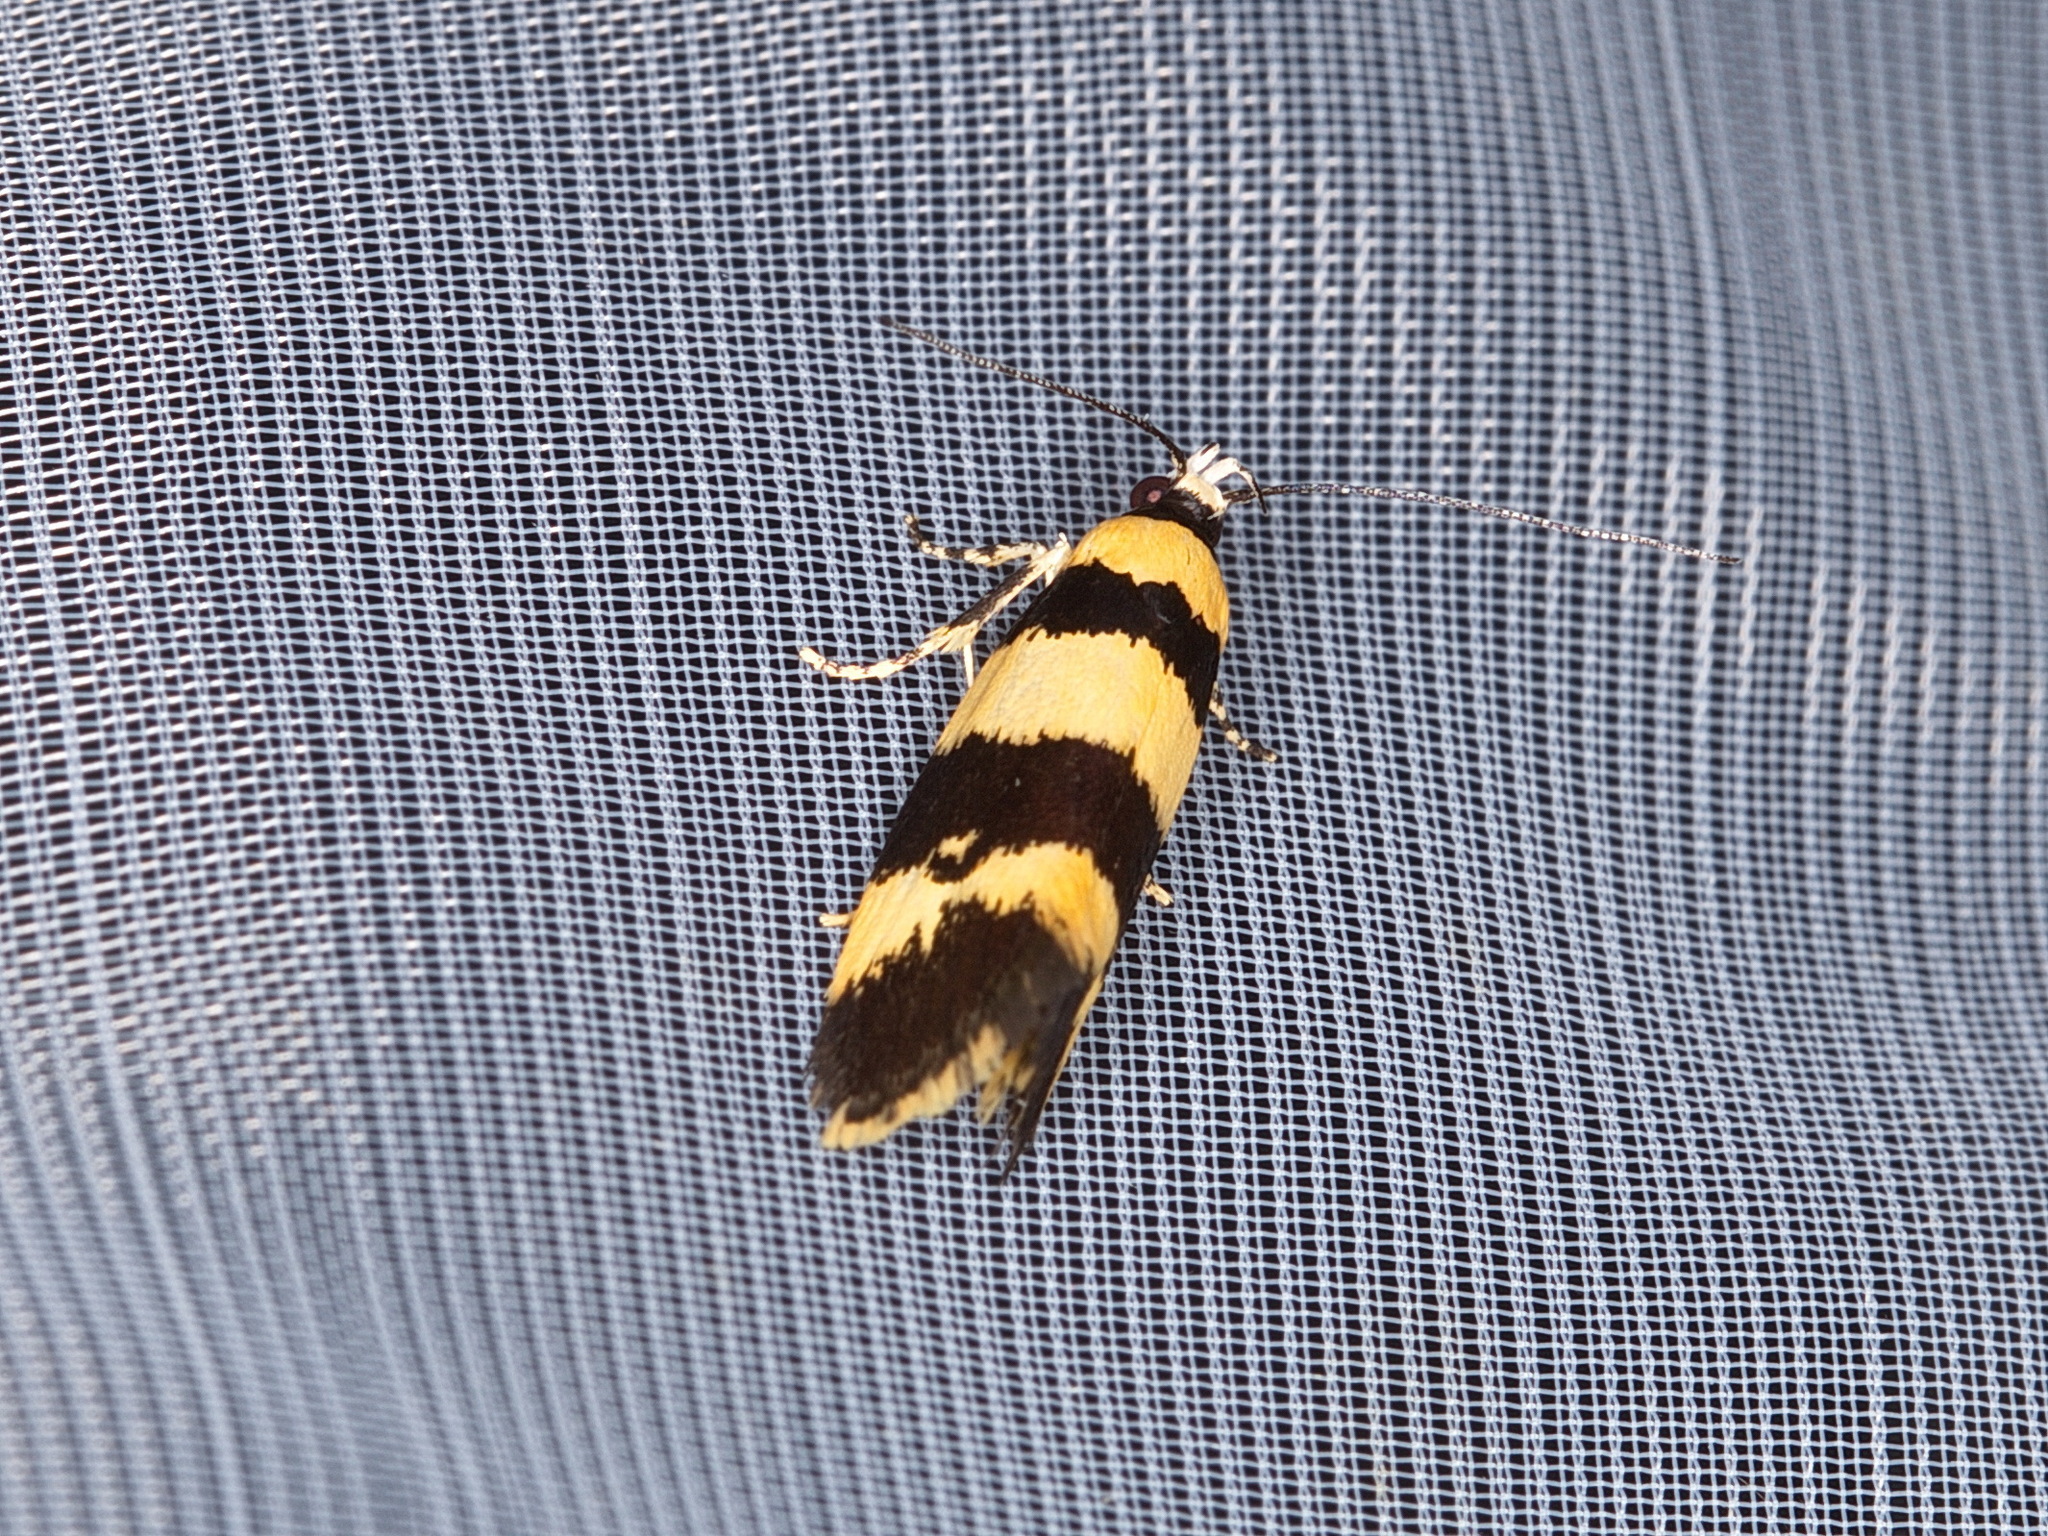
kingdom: Animalia
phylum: Arthropoda
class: Insecta
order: Lepidoptera
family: Xyloryctidae
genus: Telecrates
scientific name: Telecrates melanochrysa
